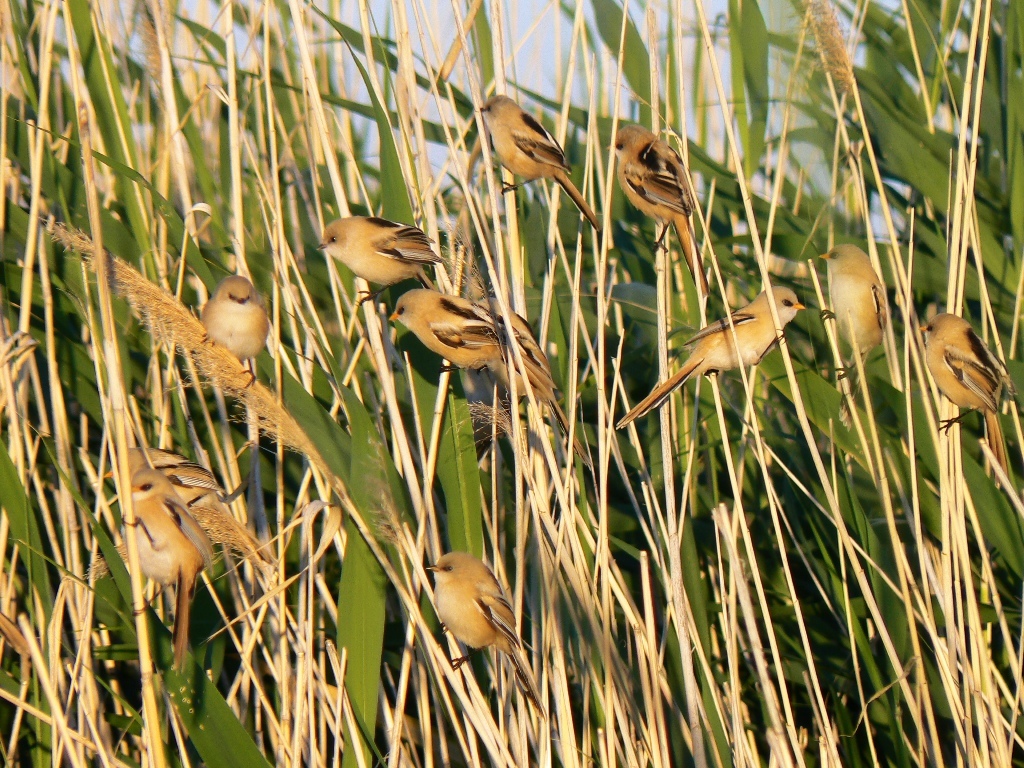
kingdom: Animalia
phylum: Chordata
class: Aves
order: Passeriformes
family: Panuridae
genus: Panurus
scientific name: Panurus biarmicus
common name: Bearded reedling
